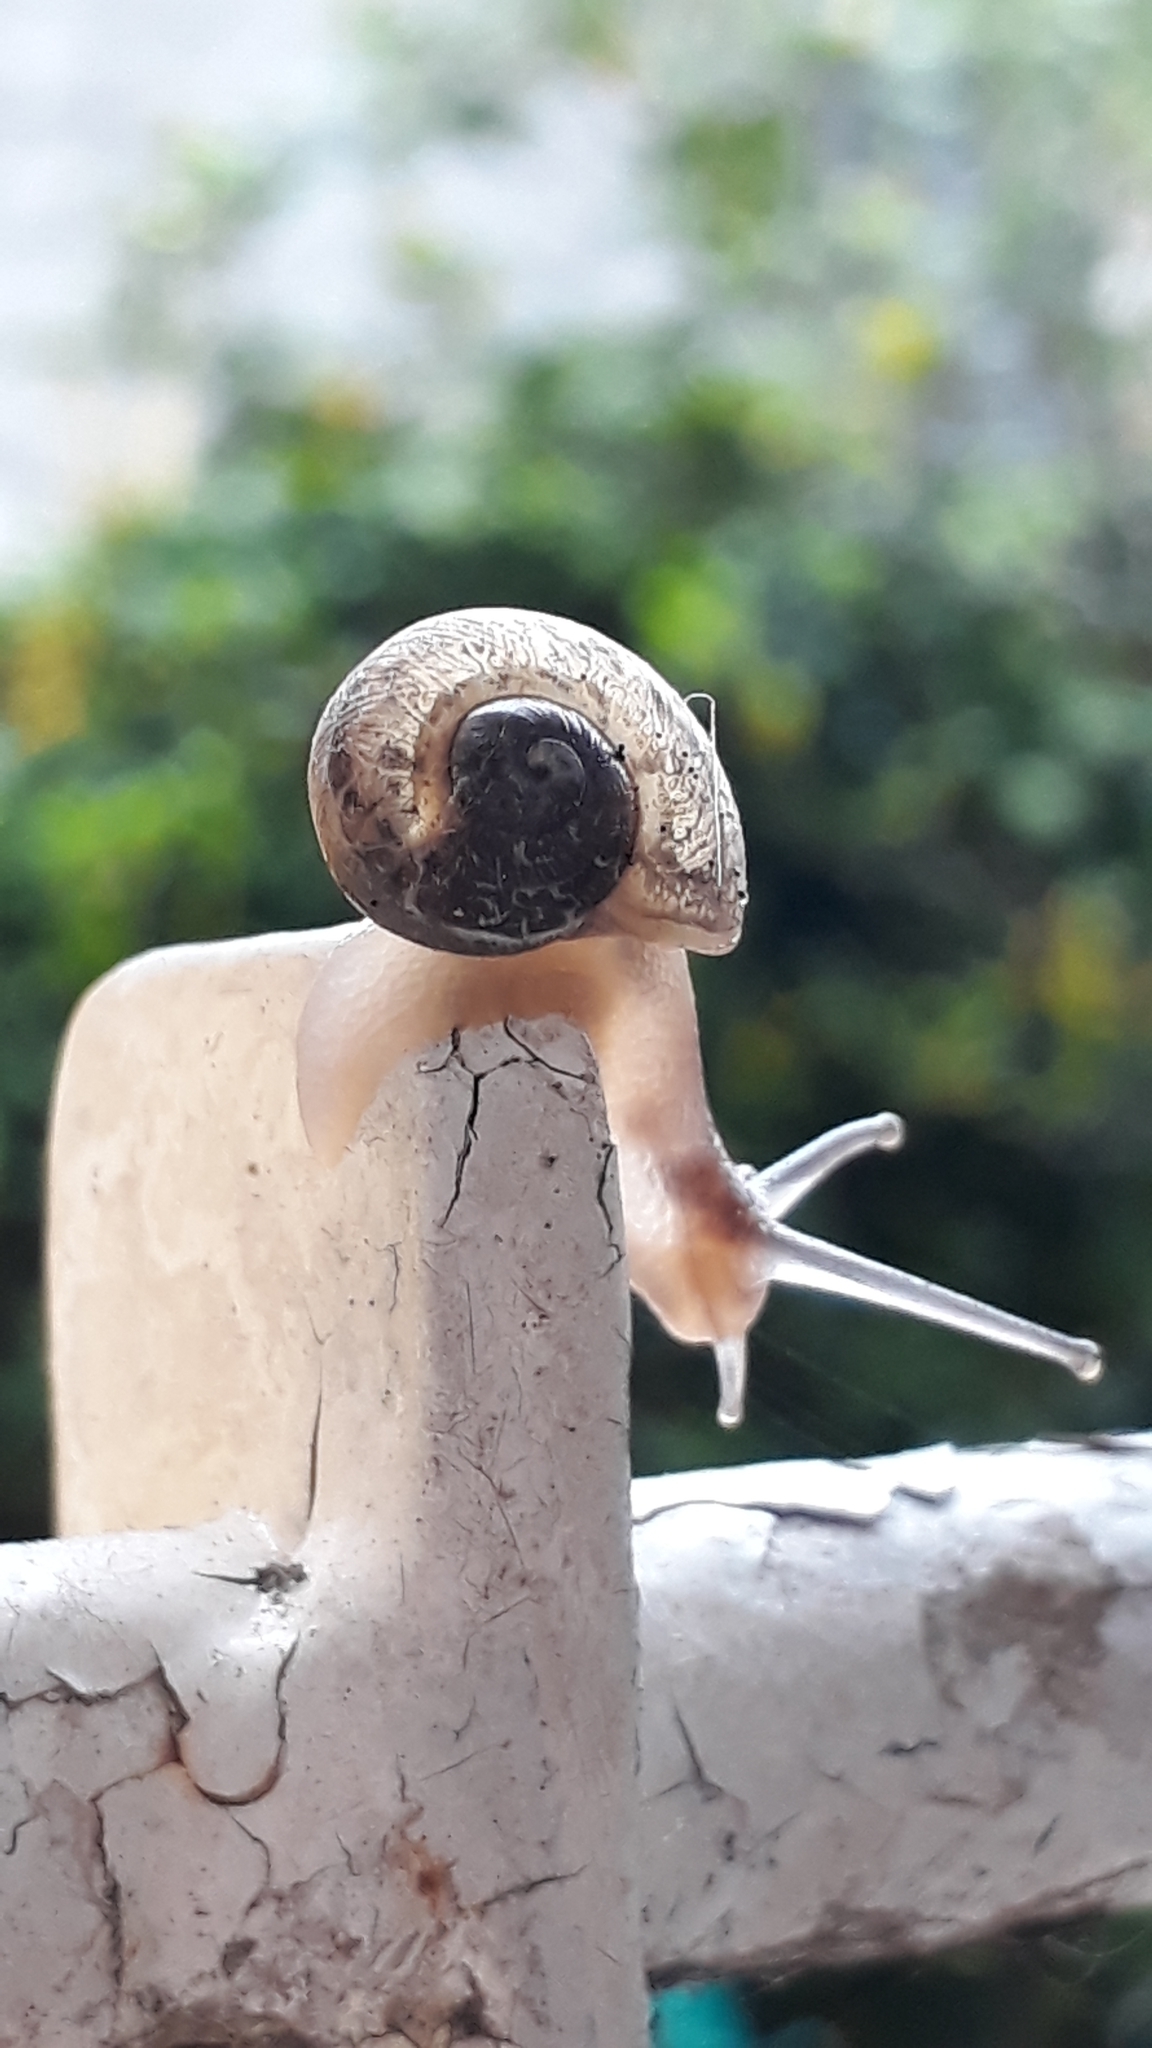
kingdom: Animalia
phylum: Mollusca
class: Gastropoda
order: Stylommatophora
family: Helicidae
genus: Cornu
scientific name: Cornu aspersum
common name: Brown garden snail
